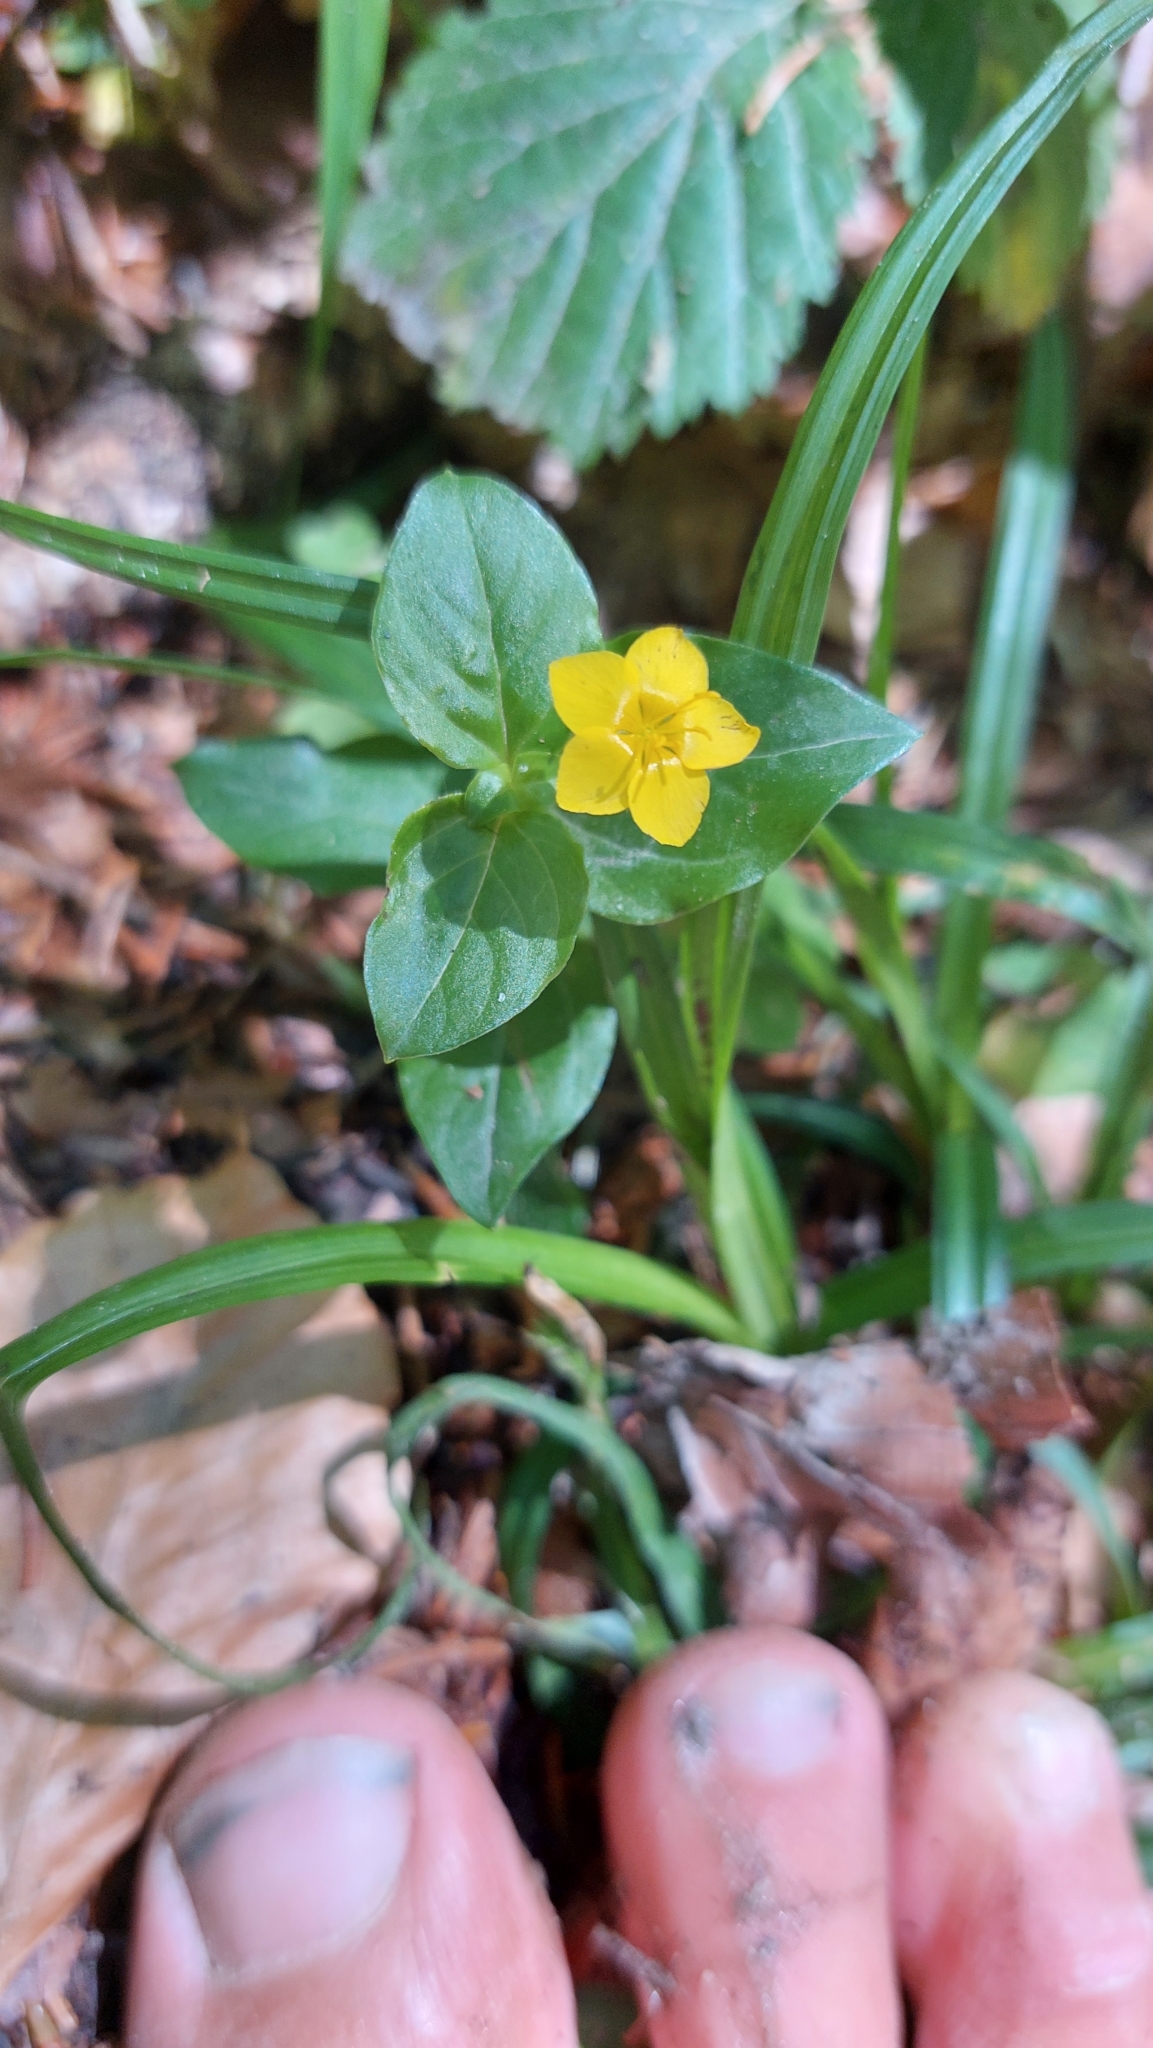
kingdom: Plantae
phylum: Tracheophyta
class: Magnoliopsida
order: Ericales
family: Primulaceae
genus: Lysimachia
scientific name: Lysimachia nemorum
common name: Yellow pimpernel
